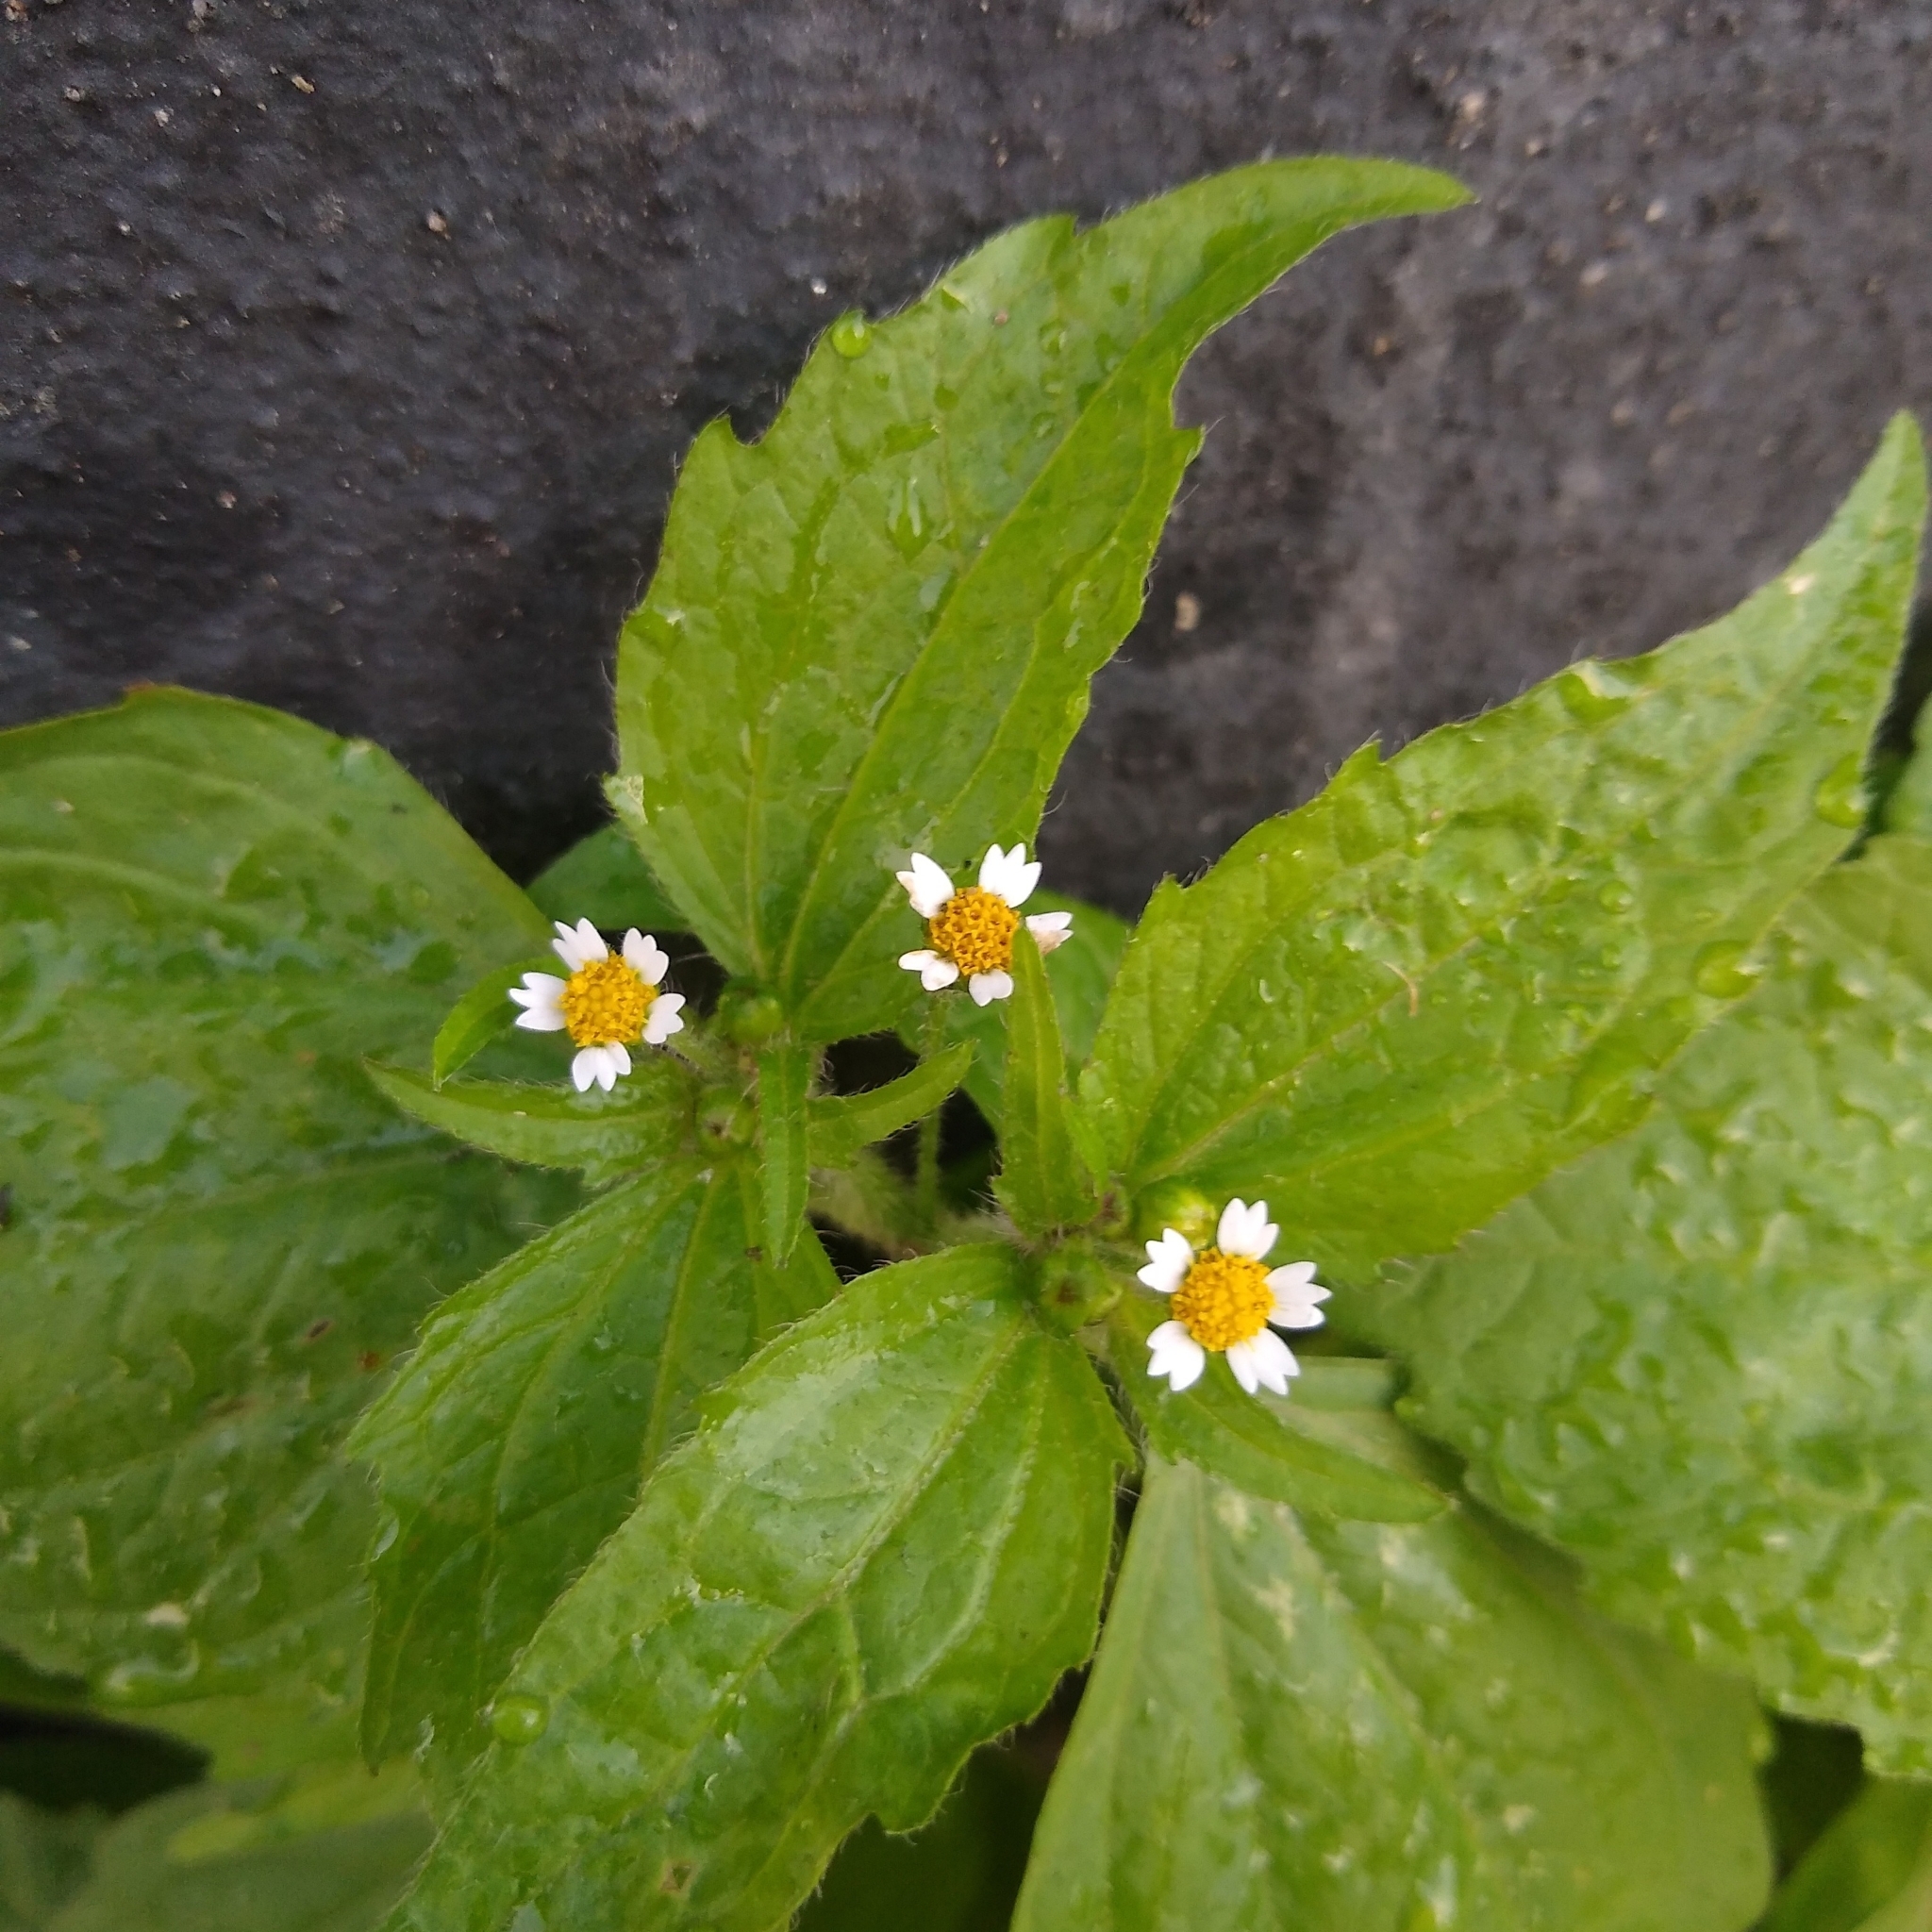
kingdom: Plantae
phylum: Tracheophyta
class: Magnoliopsida
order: Asterales
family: Asteraceae
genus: Galinsoga
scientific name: Galinsoga quadriradiata
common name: Shaggy soldier
